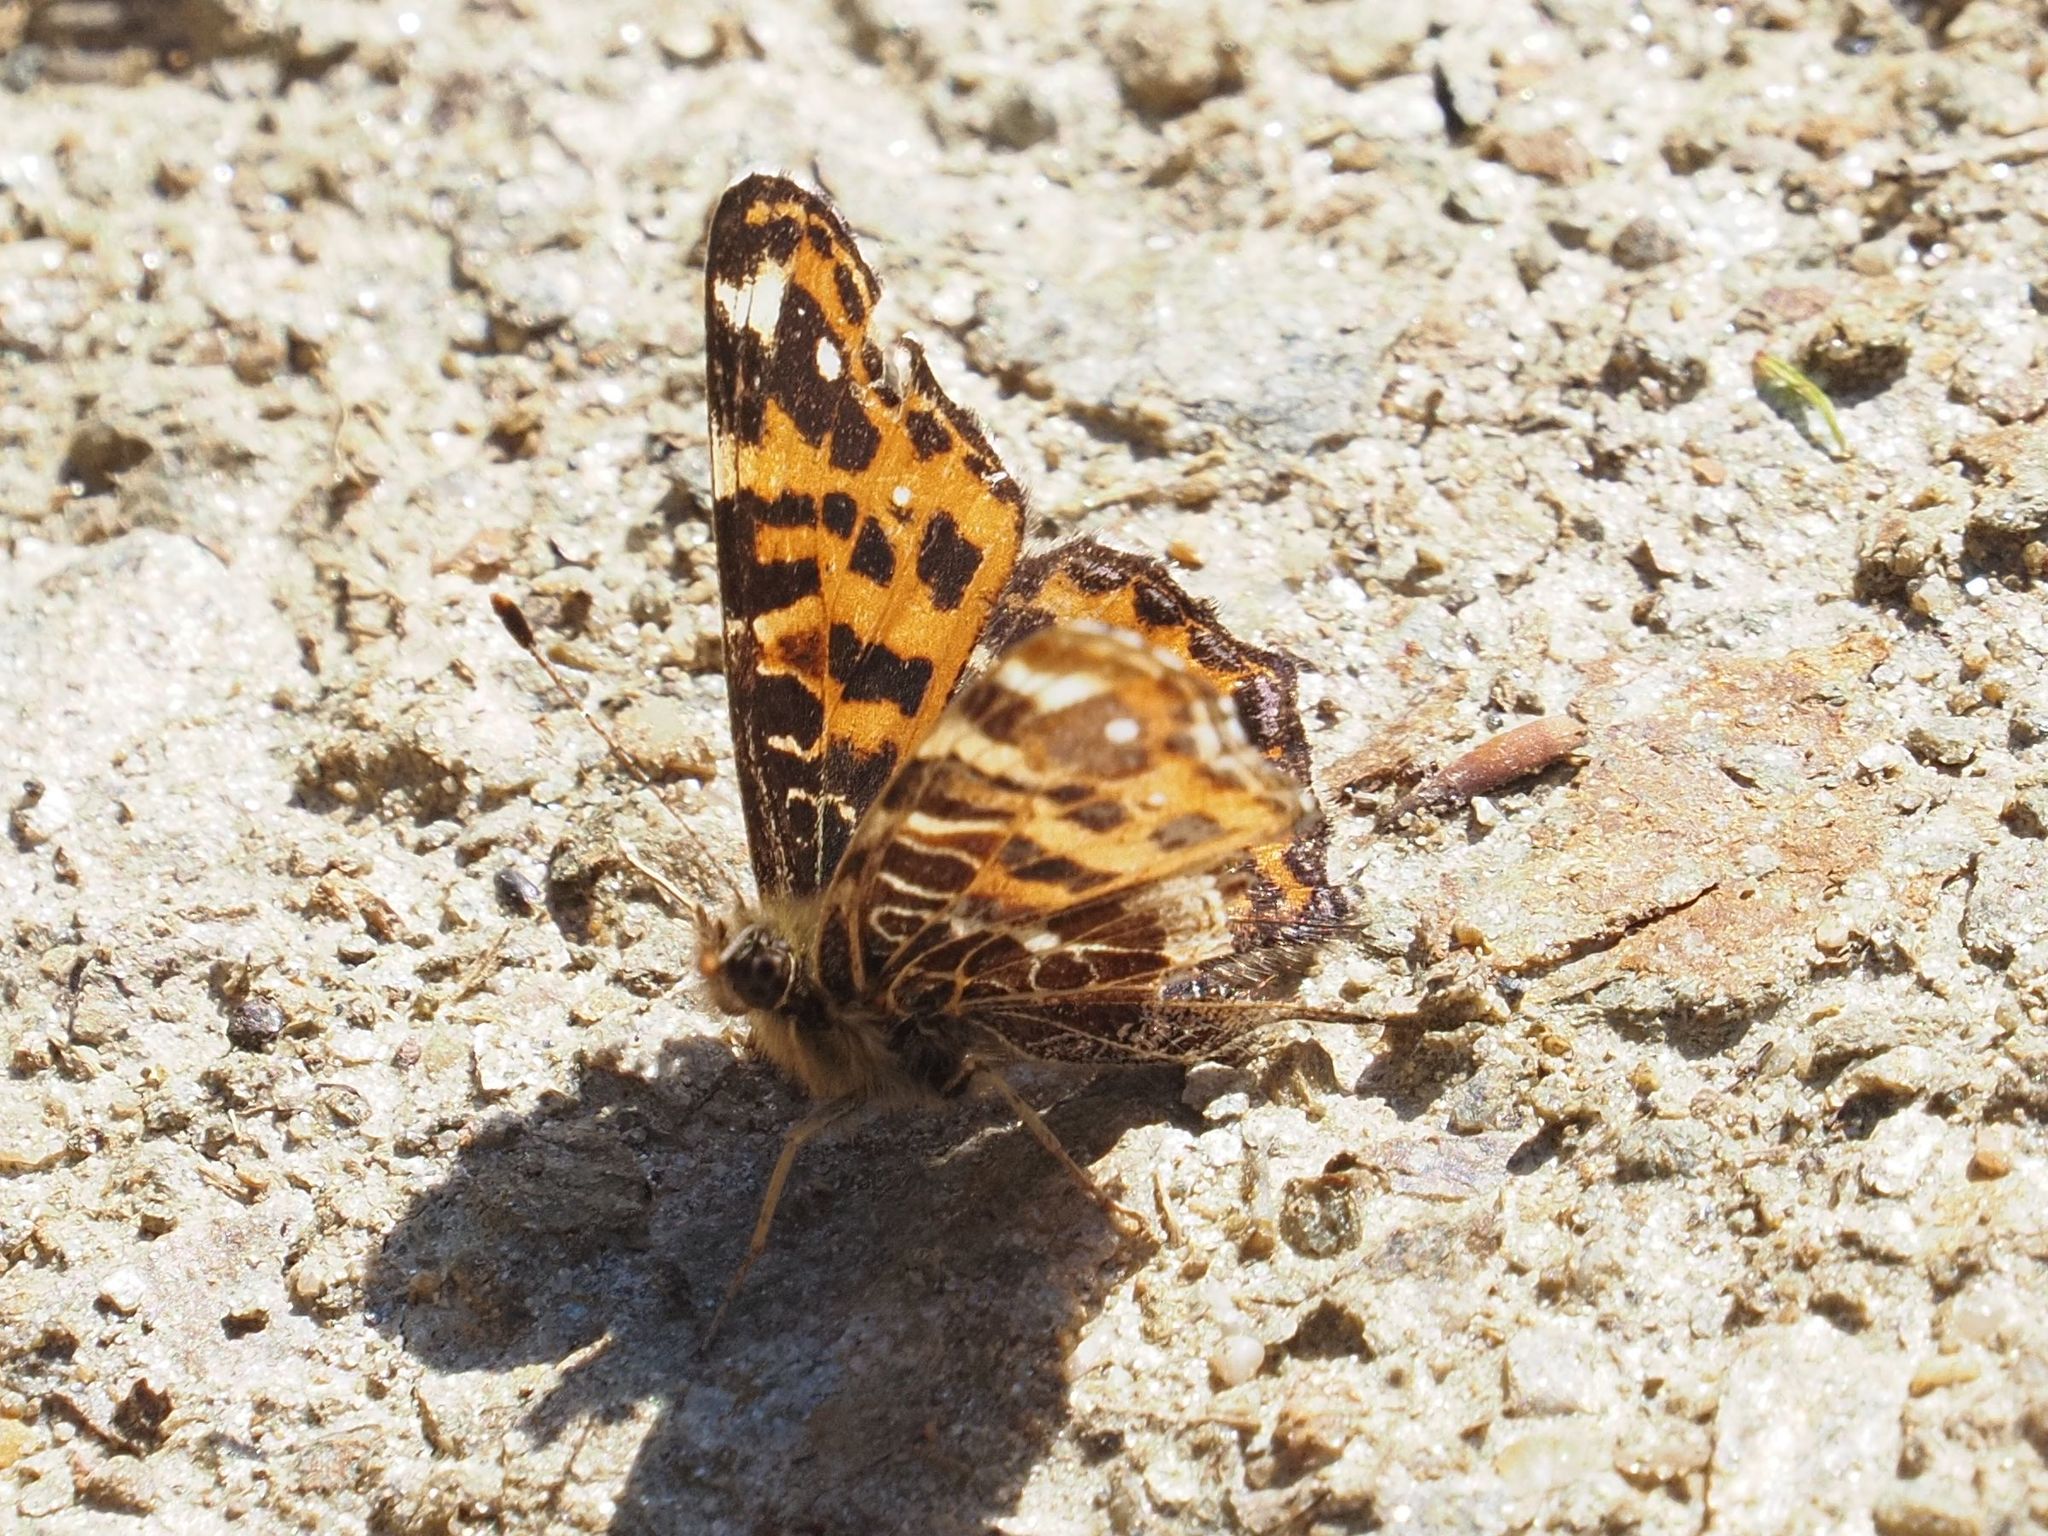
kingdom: Animalia
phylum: Arthropoda
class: Insecta
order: Lepidoptera
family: Nymphalidae
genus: Araschnia
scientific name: Araschnia levana
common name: Map butterfly
